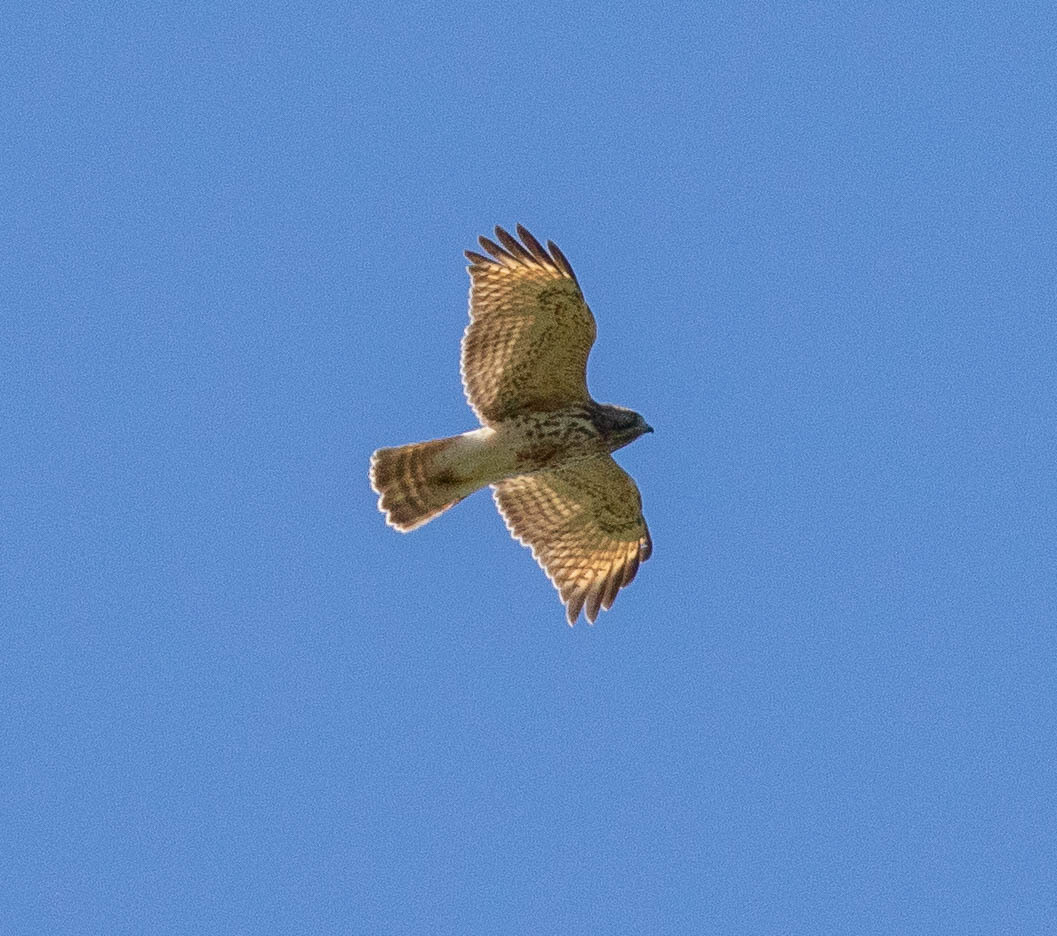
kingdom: Animalia
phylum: Chordata
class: Aves
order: Accipitriformes
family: Accipitridae
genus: Buteo
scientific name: Buteo lineatus
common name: Red-shouldered hawk
